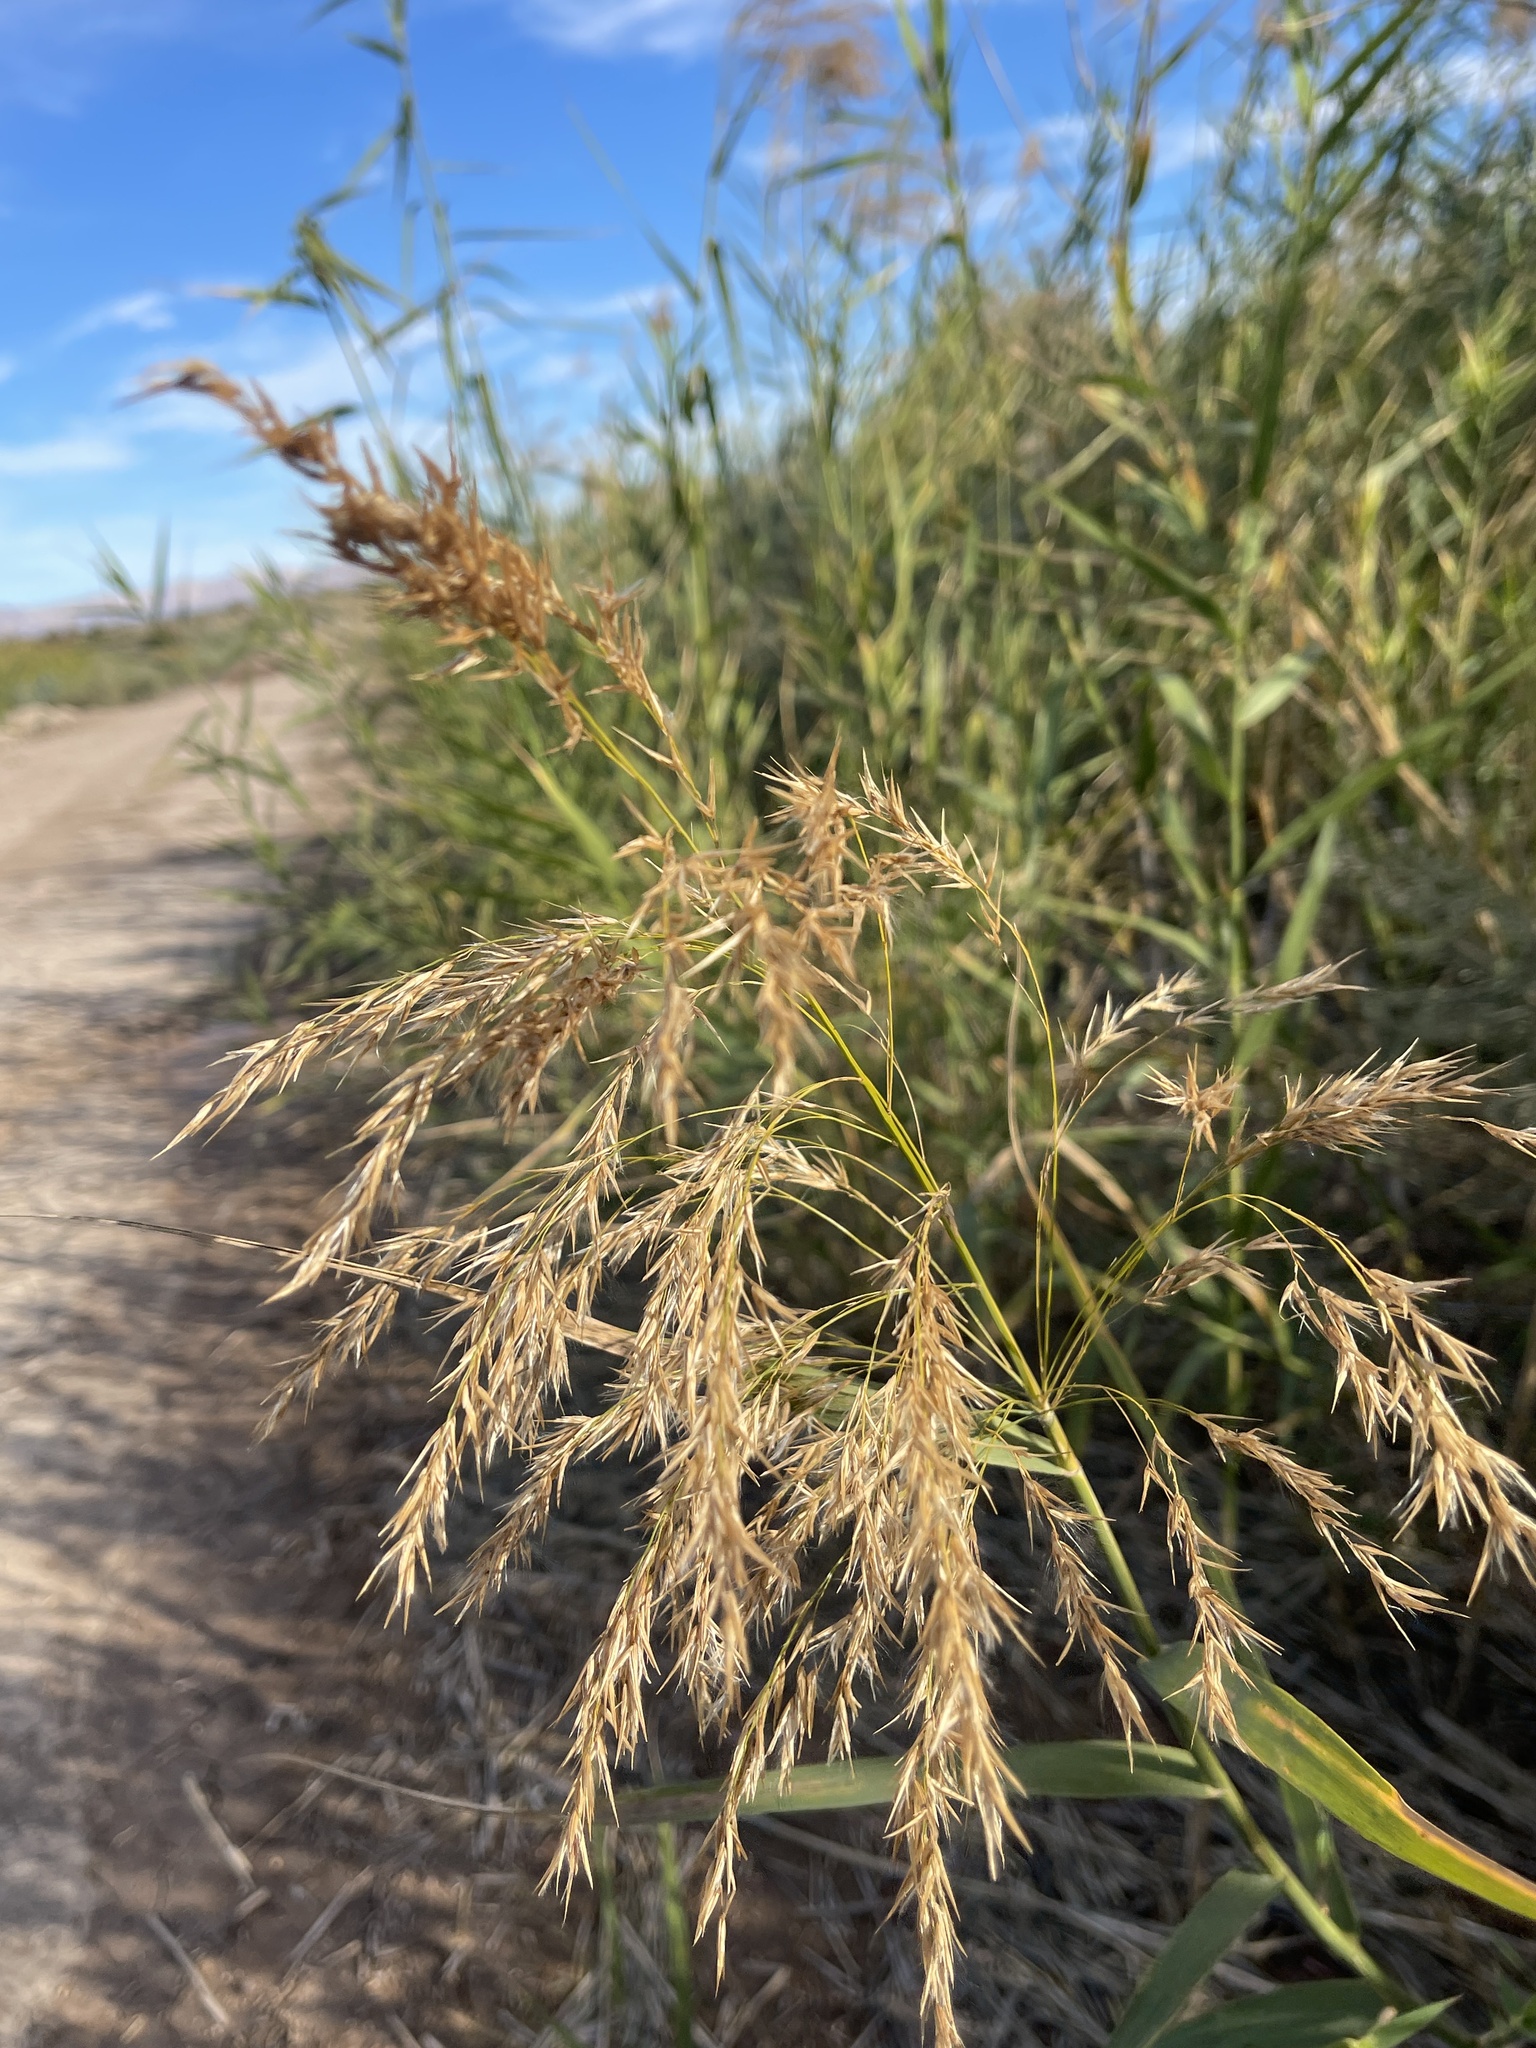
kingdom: Plantae
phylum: Tracheophyta
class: Liliopsida
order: Poales
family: Poaceae
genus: Phragmites
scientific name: Phragmites australis
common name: Common reed
